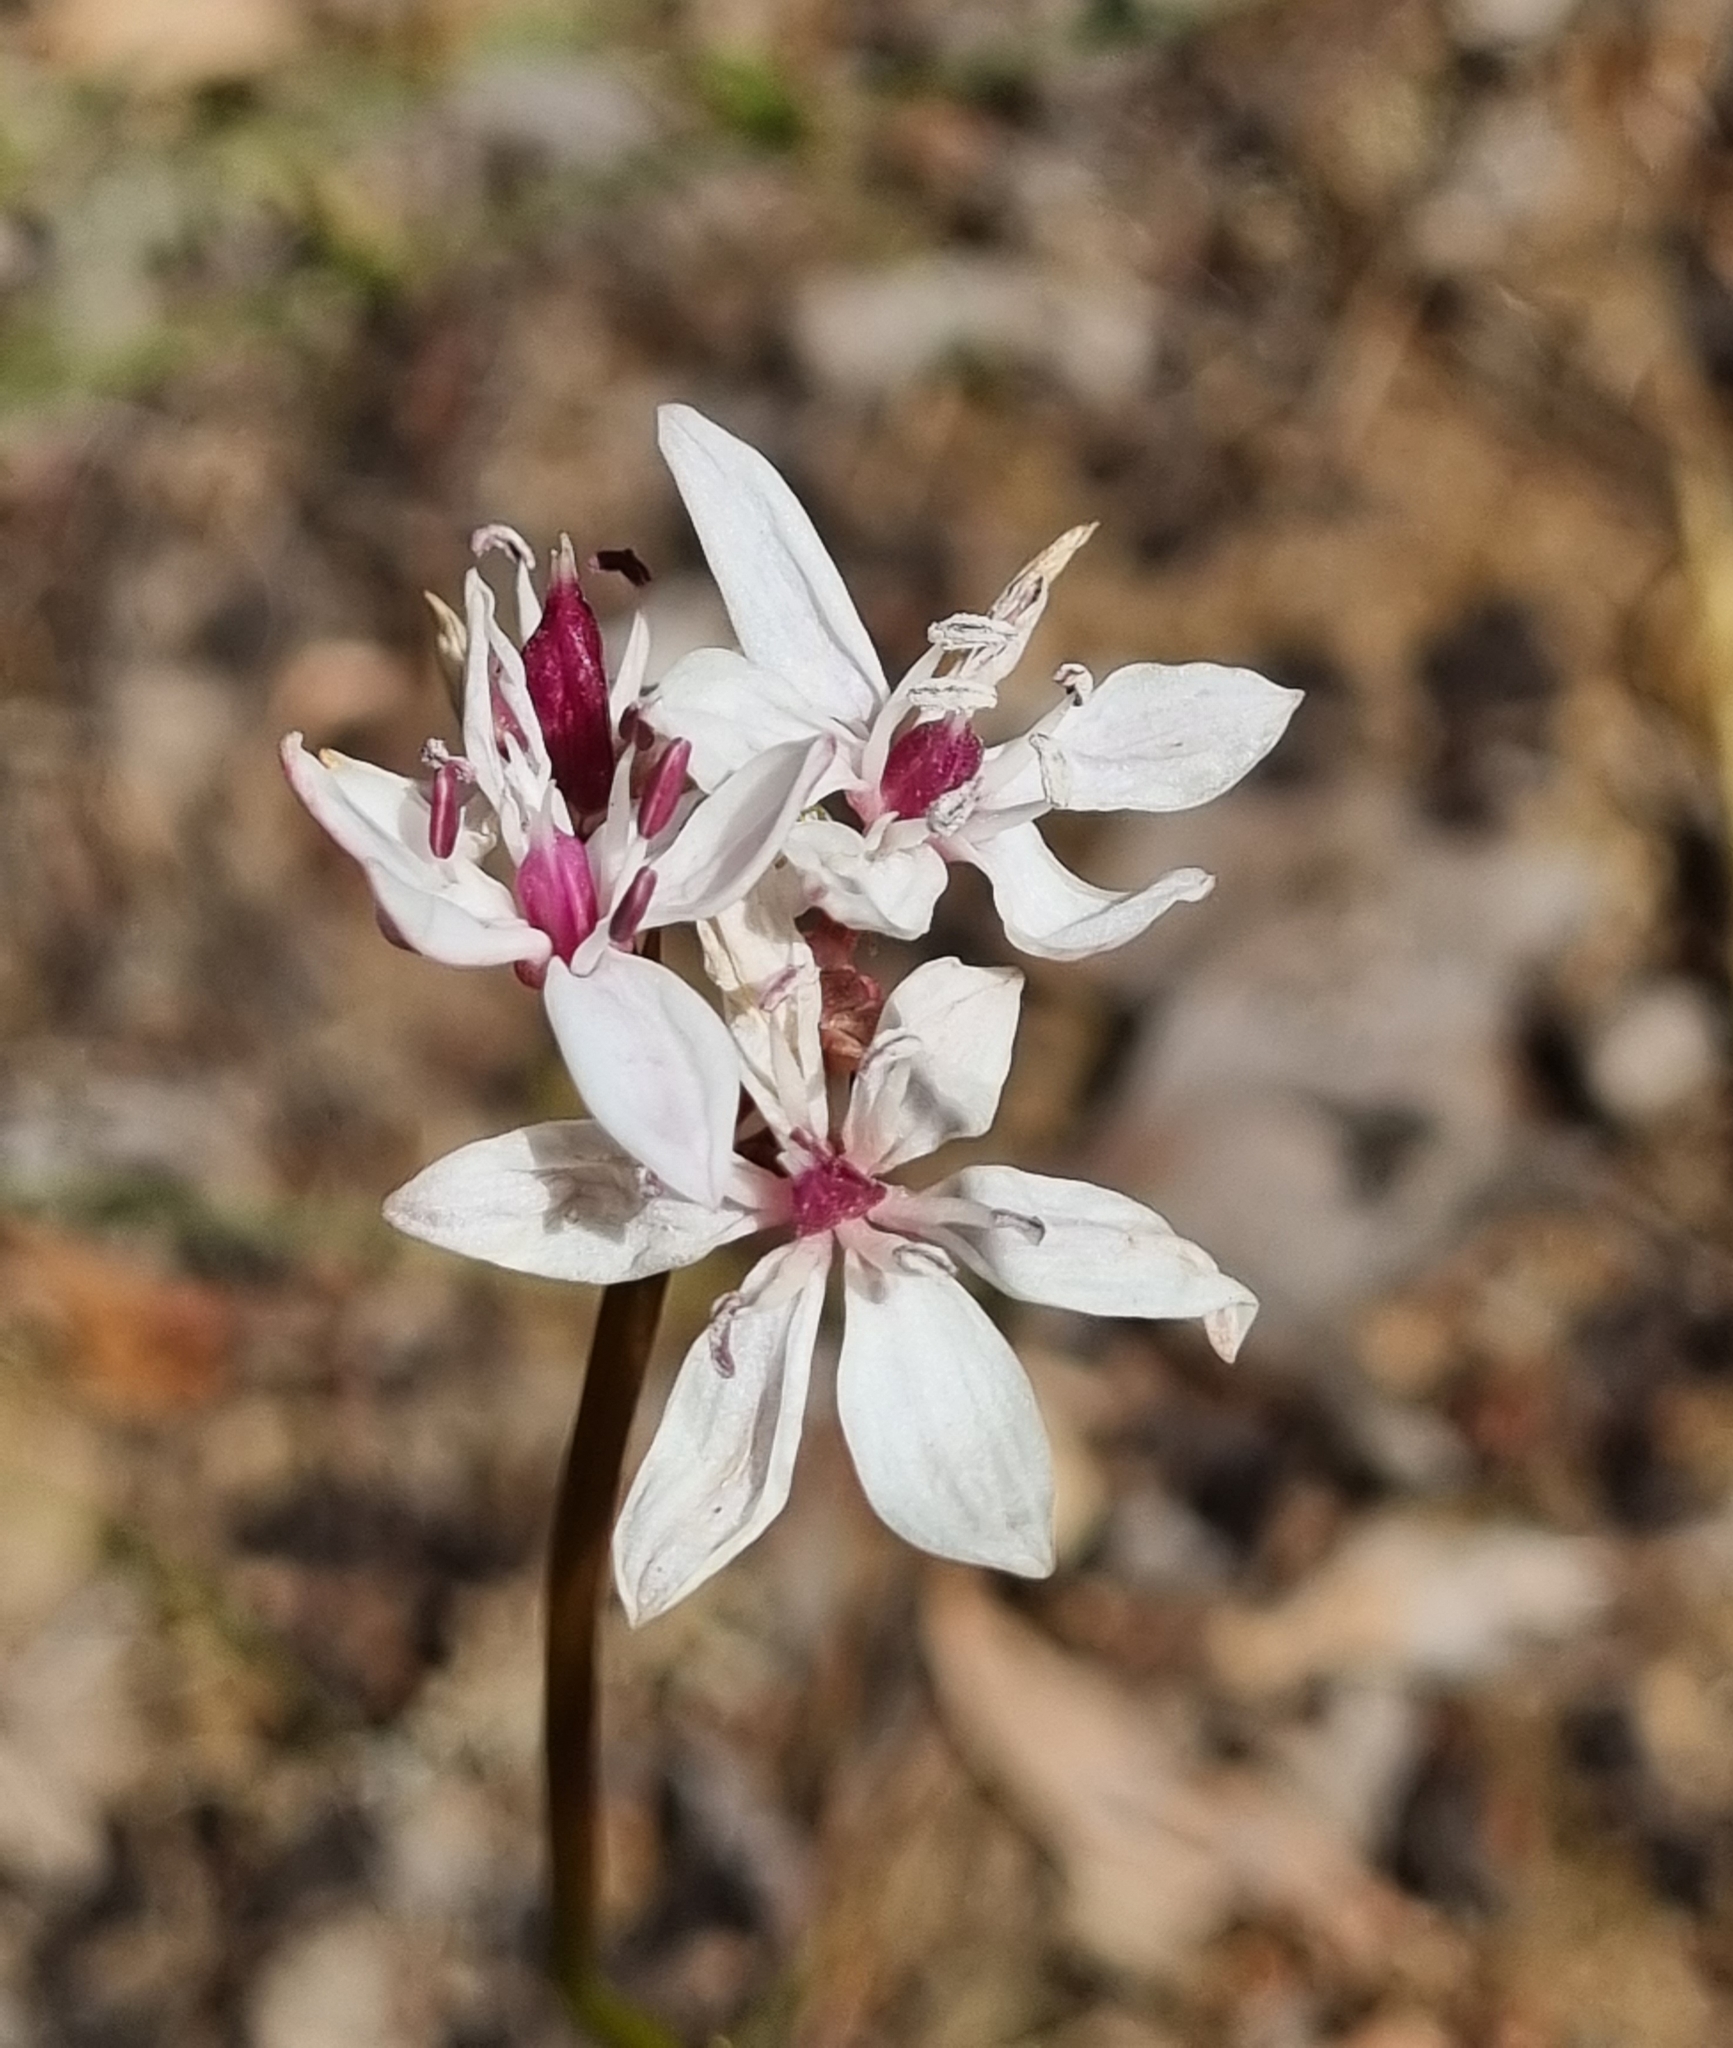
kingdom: Plantae
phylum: Tracheophyta
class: Liliopsida
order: Liliales
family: Colchicaceae
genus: Burchardia
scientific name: Burchardia umbellata
